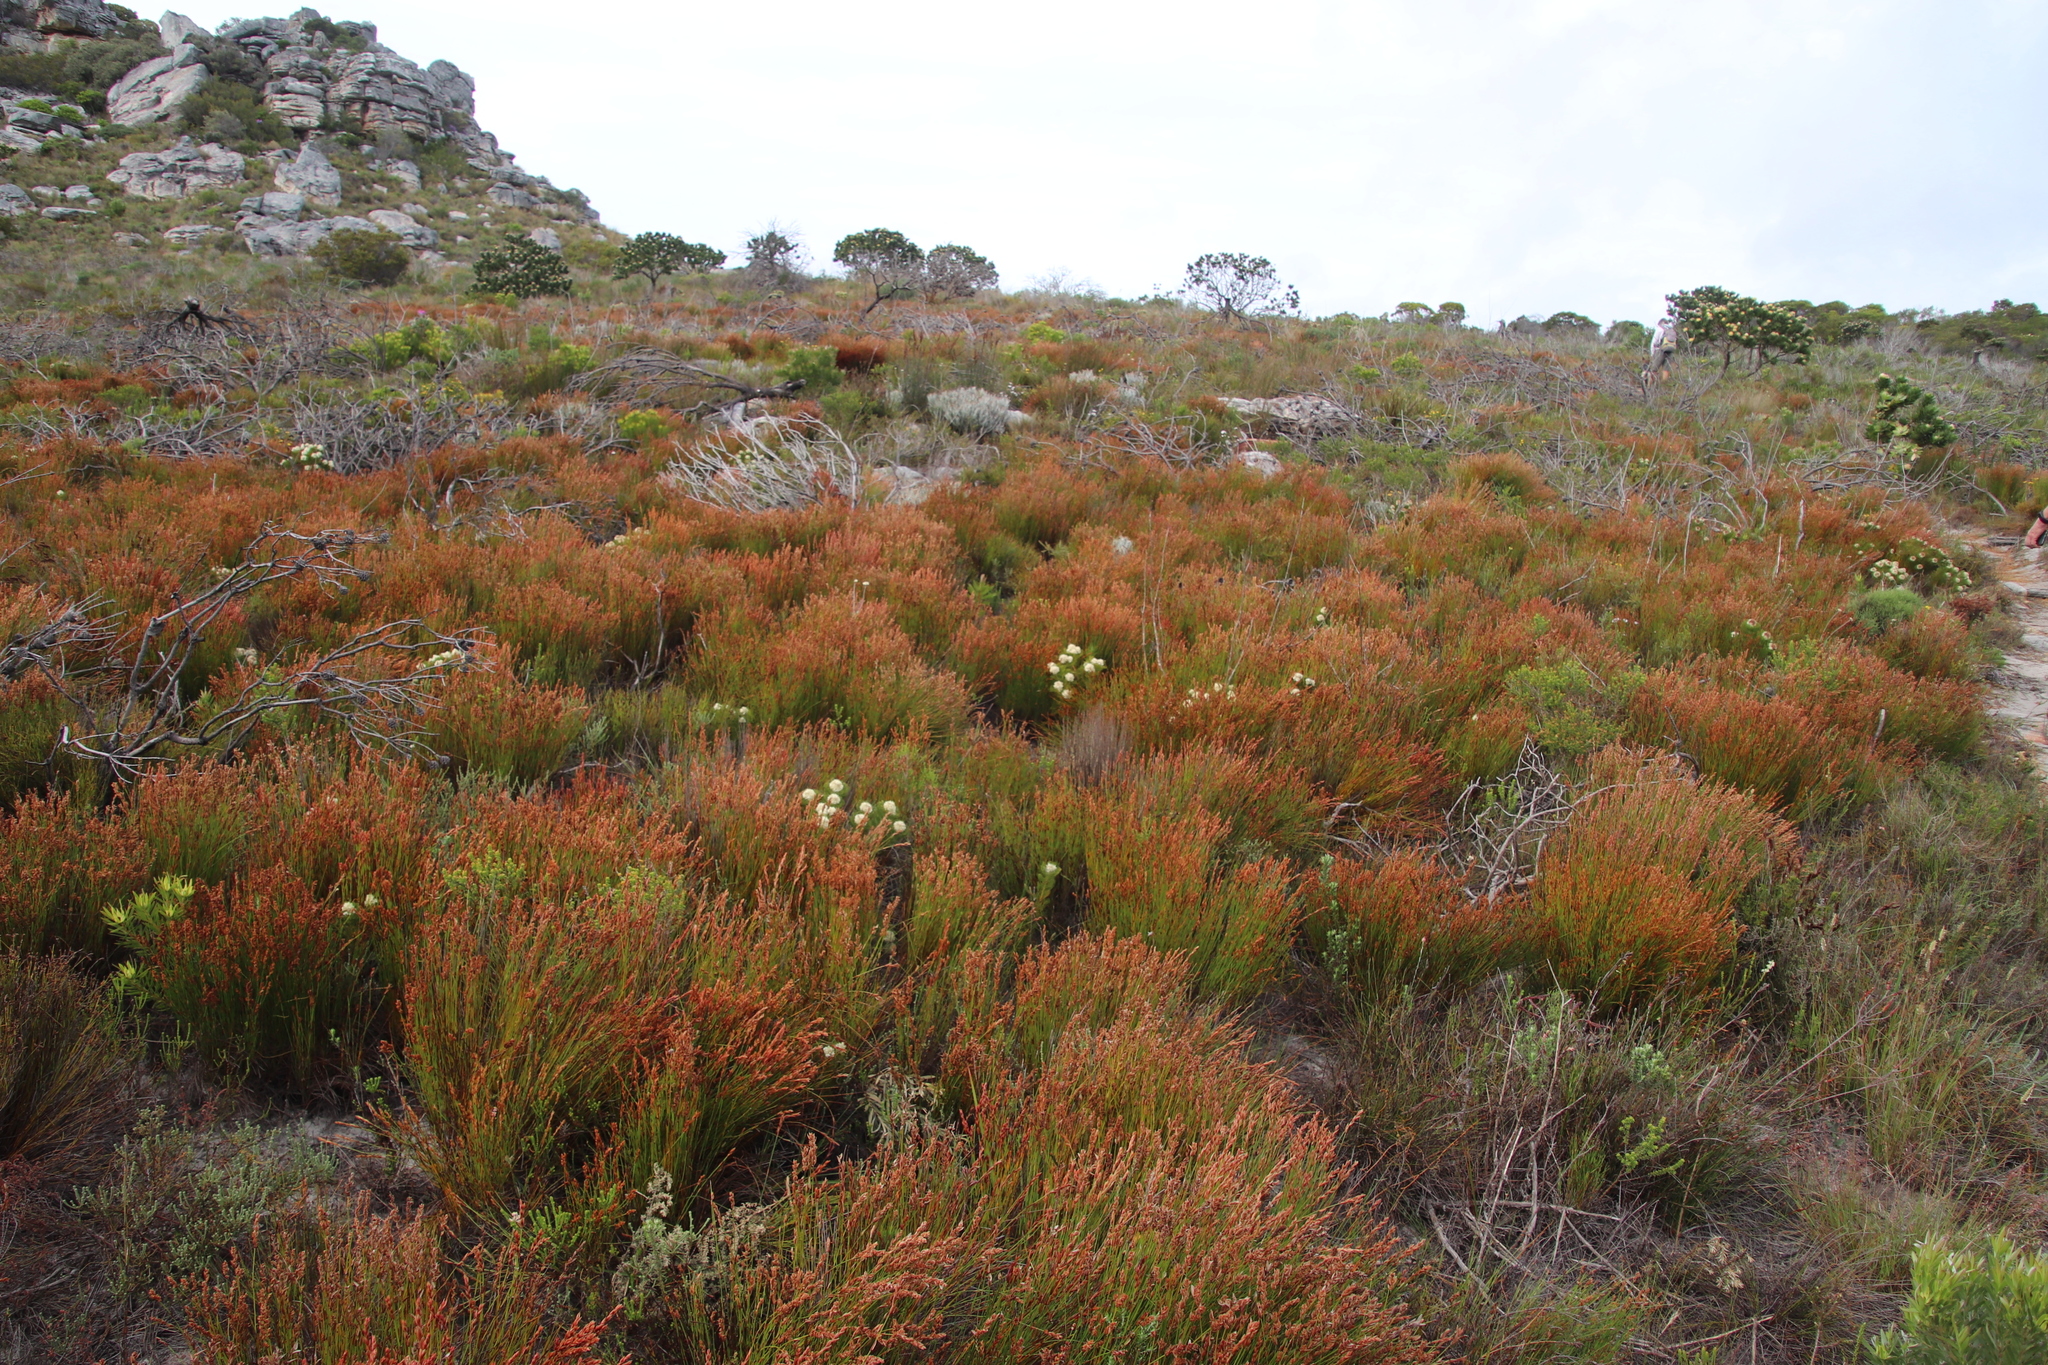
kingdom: Plantae
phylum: Tracheophyta
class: Liliopsida
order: Poales
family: Restionaceae
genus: Elegia
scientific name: Elegia stipularis
